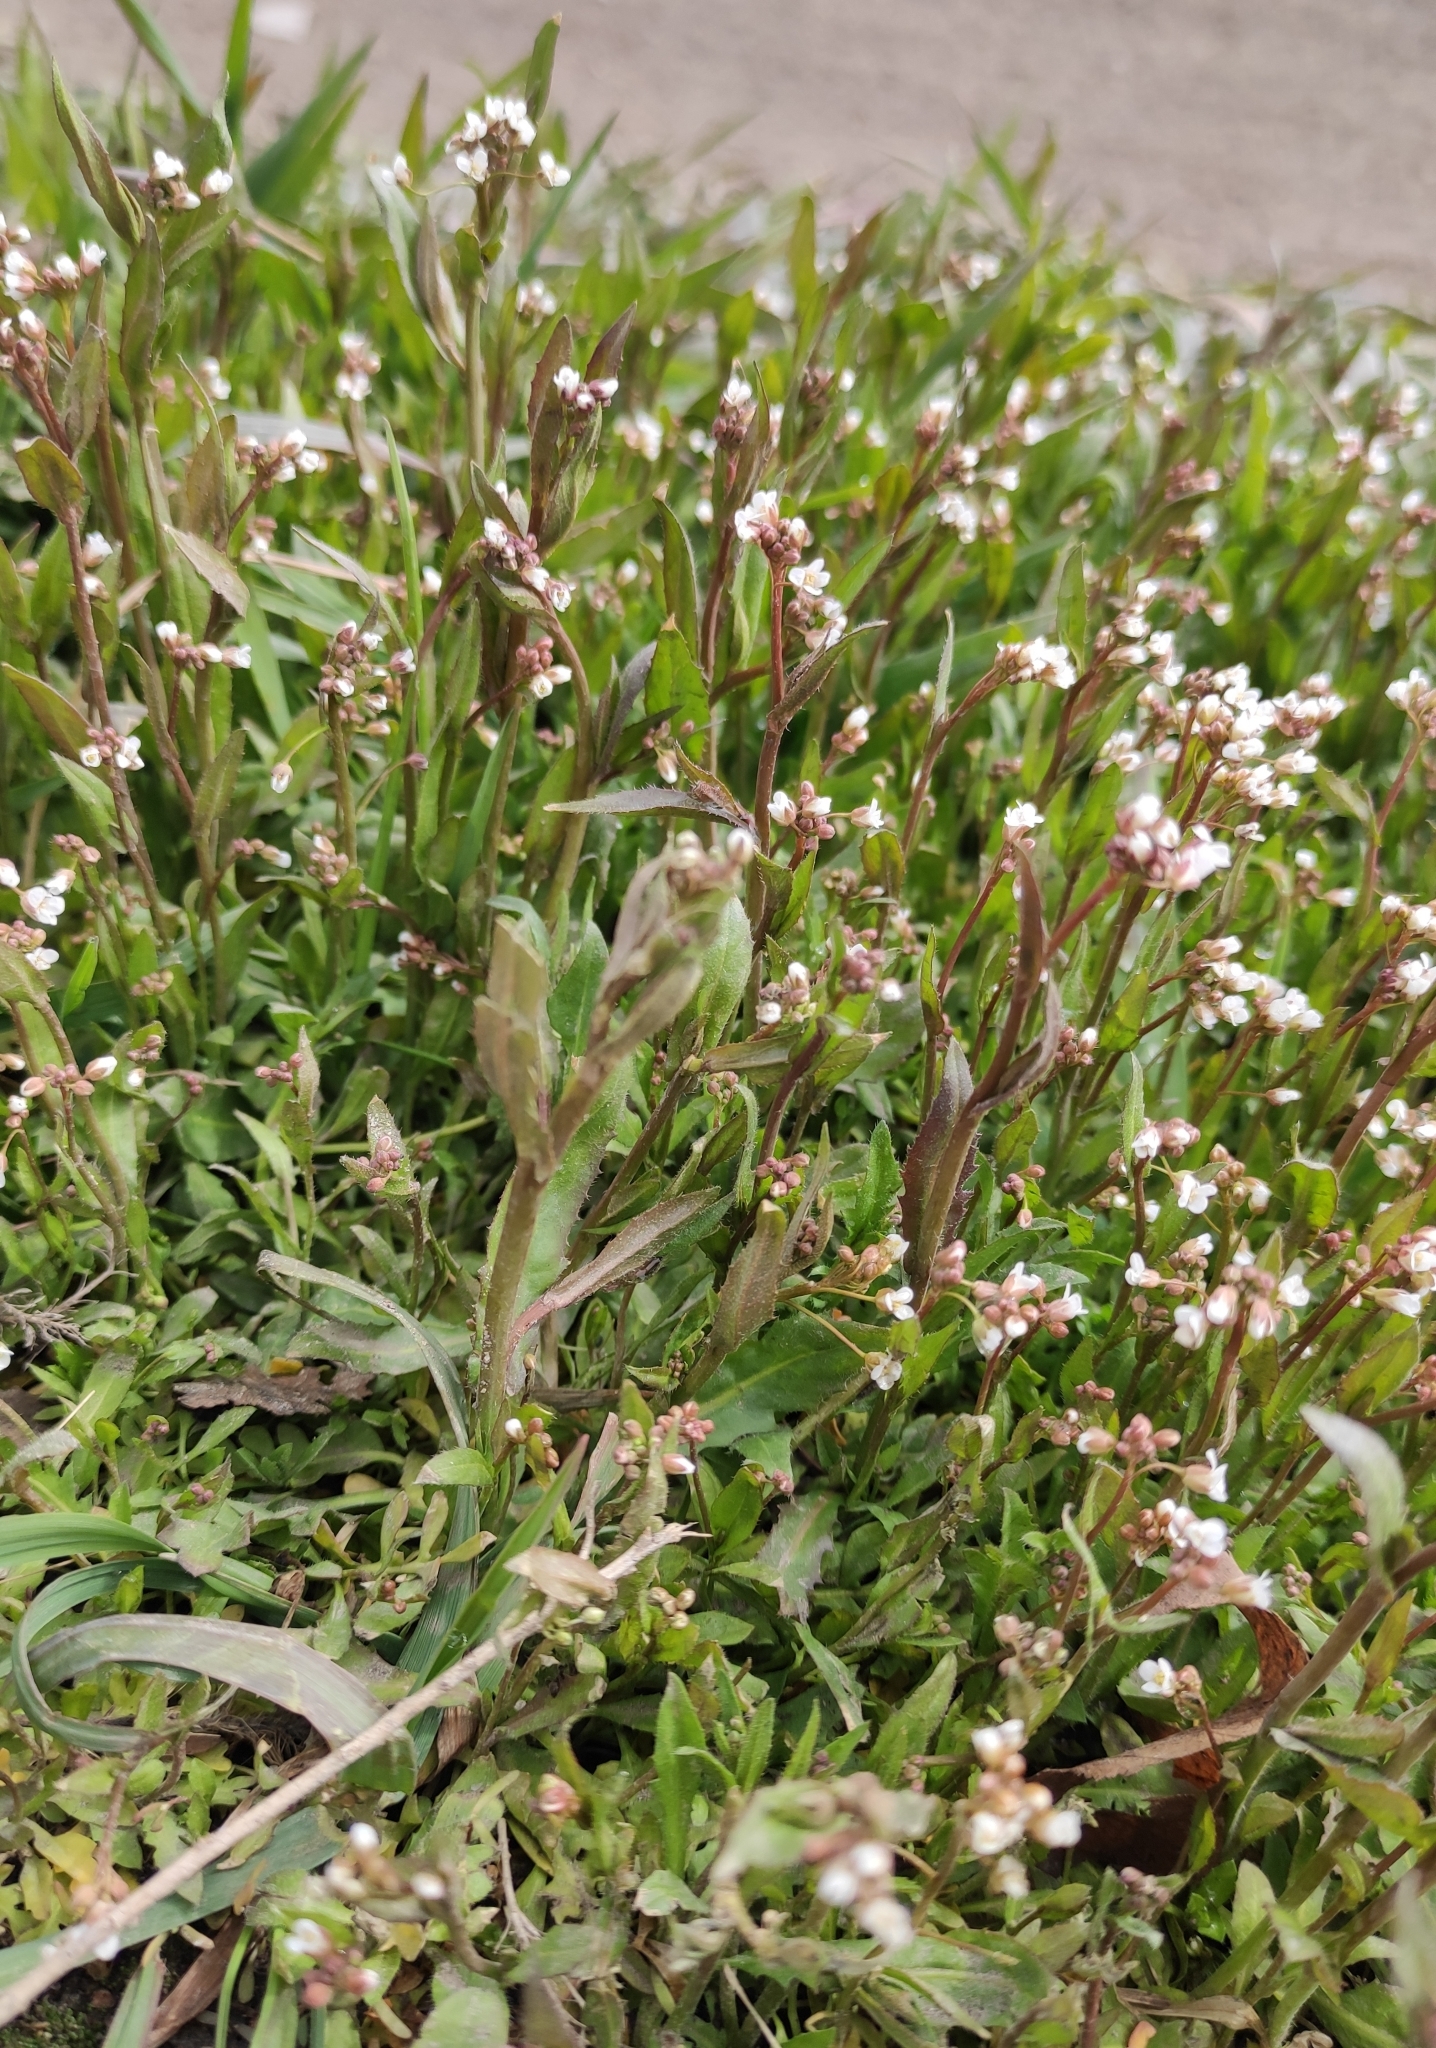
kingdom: Plantae
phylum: Tracheophyta
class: Magnoliopsida
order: Brassicales
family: Brassicaceae
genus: Capsella
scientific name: Capsella bursa-pastoris
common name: Shepherd's purse
